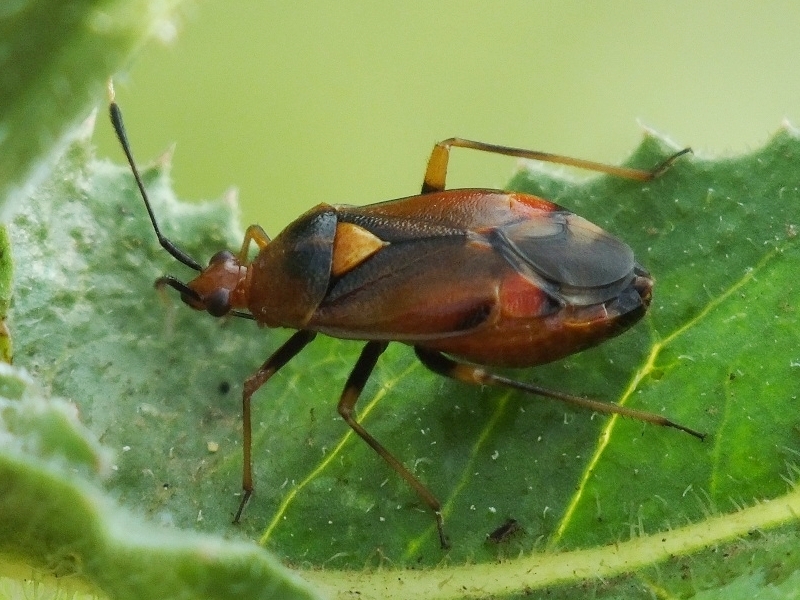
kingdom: Animalia
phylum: Arthropoda
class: Insecta
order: Hemiptera
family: Miridae
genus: Deraeocoris
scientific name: Deraeocoris ruber
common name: Plant bug
